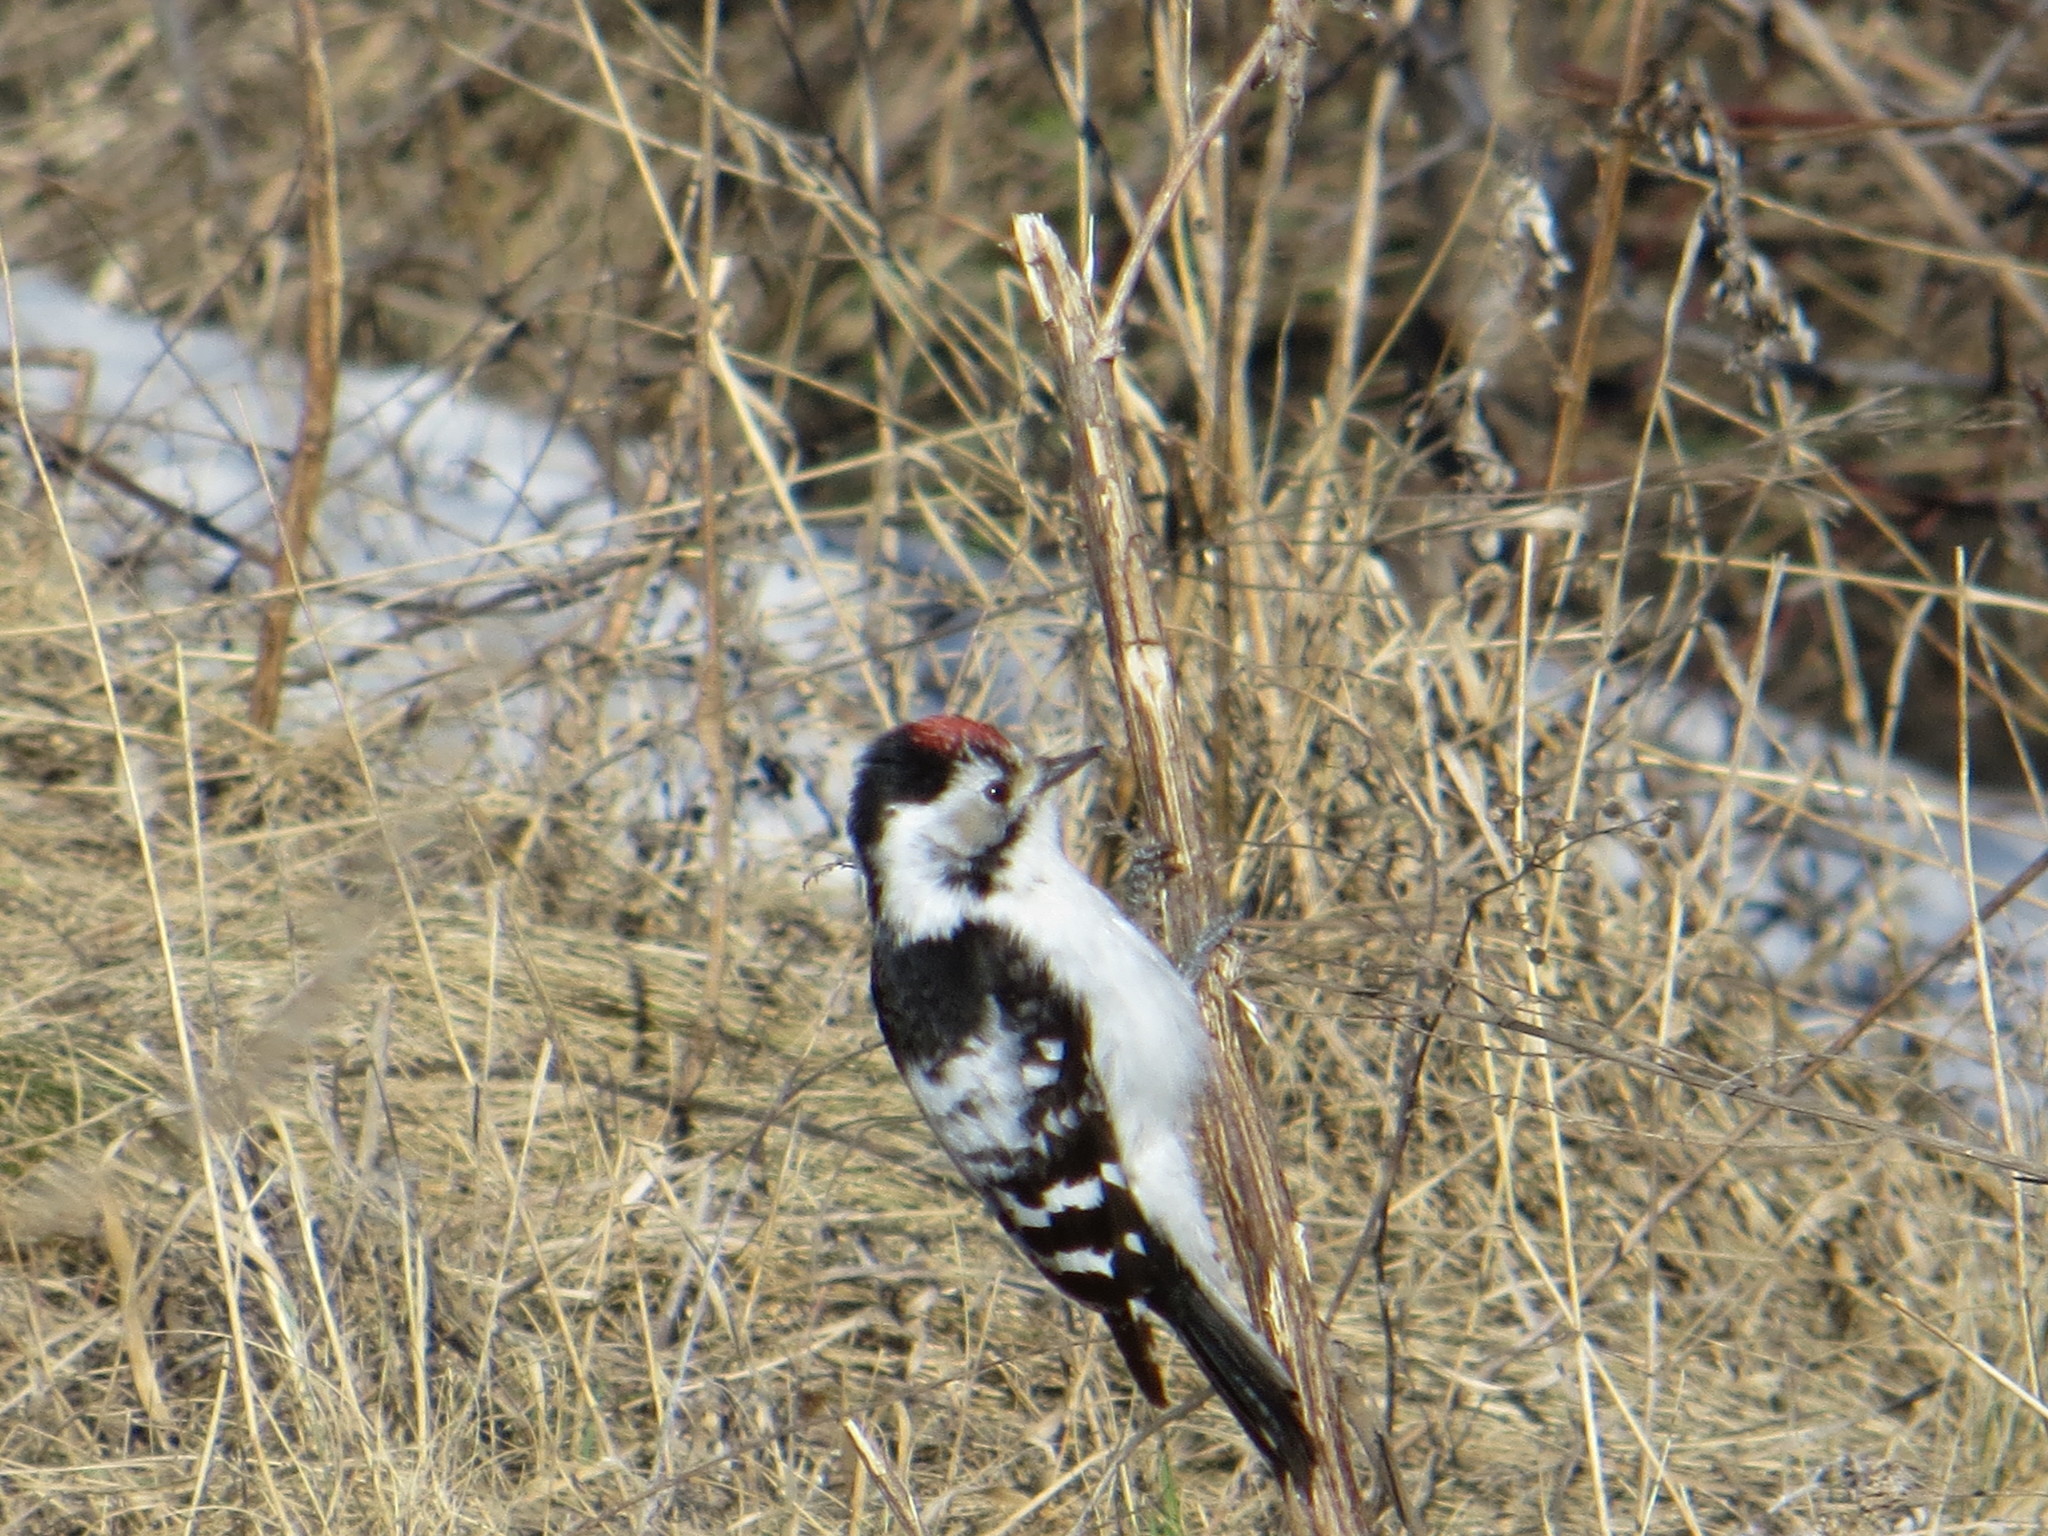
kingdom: Animalia
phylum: Chordata
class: Aves
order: Piciformes
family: Picidae
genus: Dryobates
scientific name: Dryobates minor
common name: Lesser spotted woodpecker
